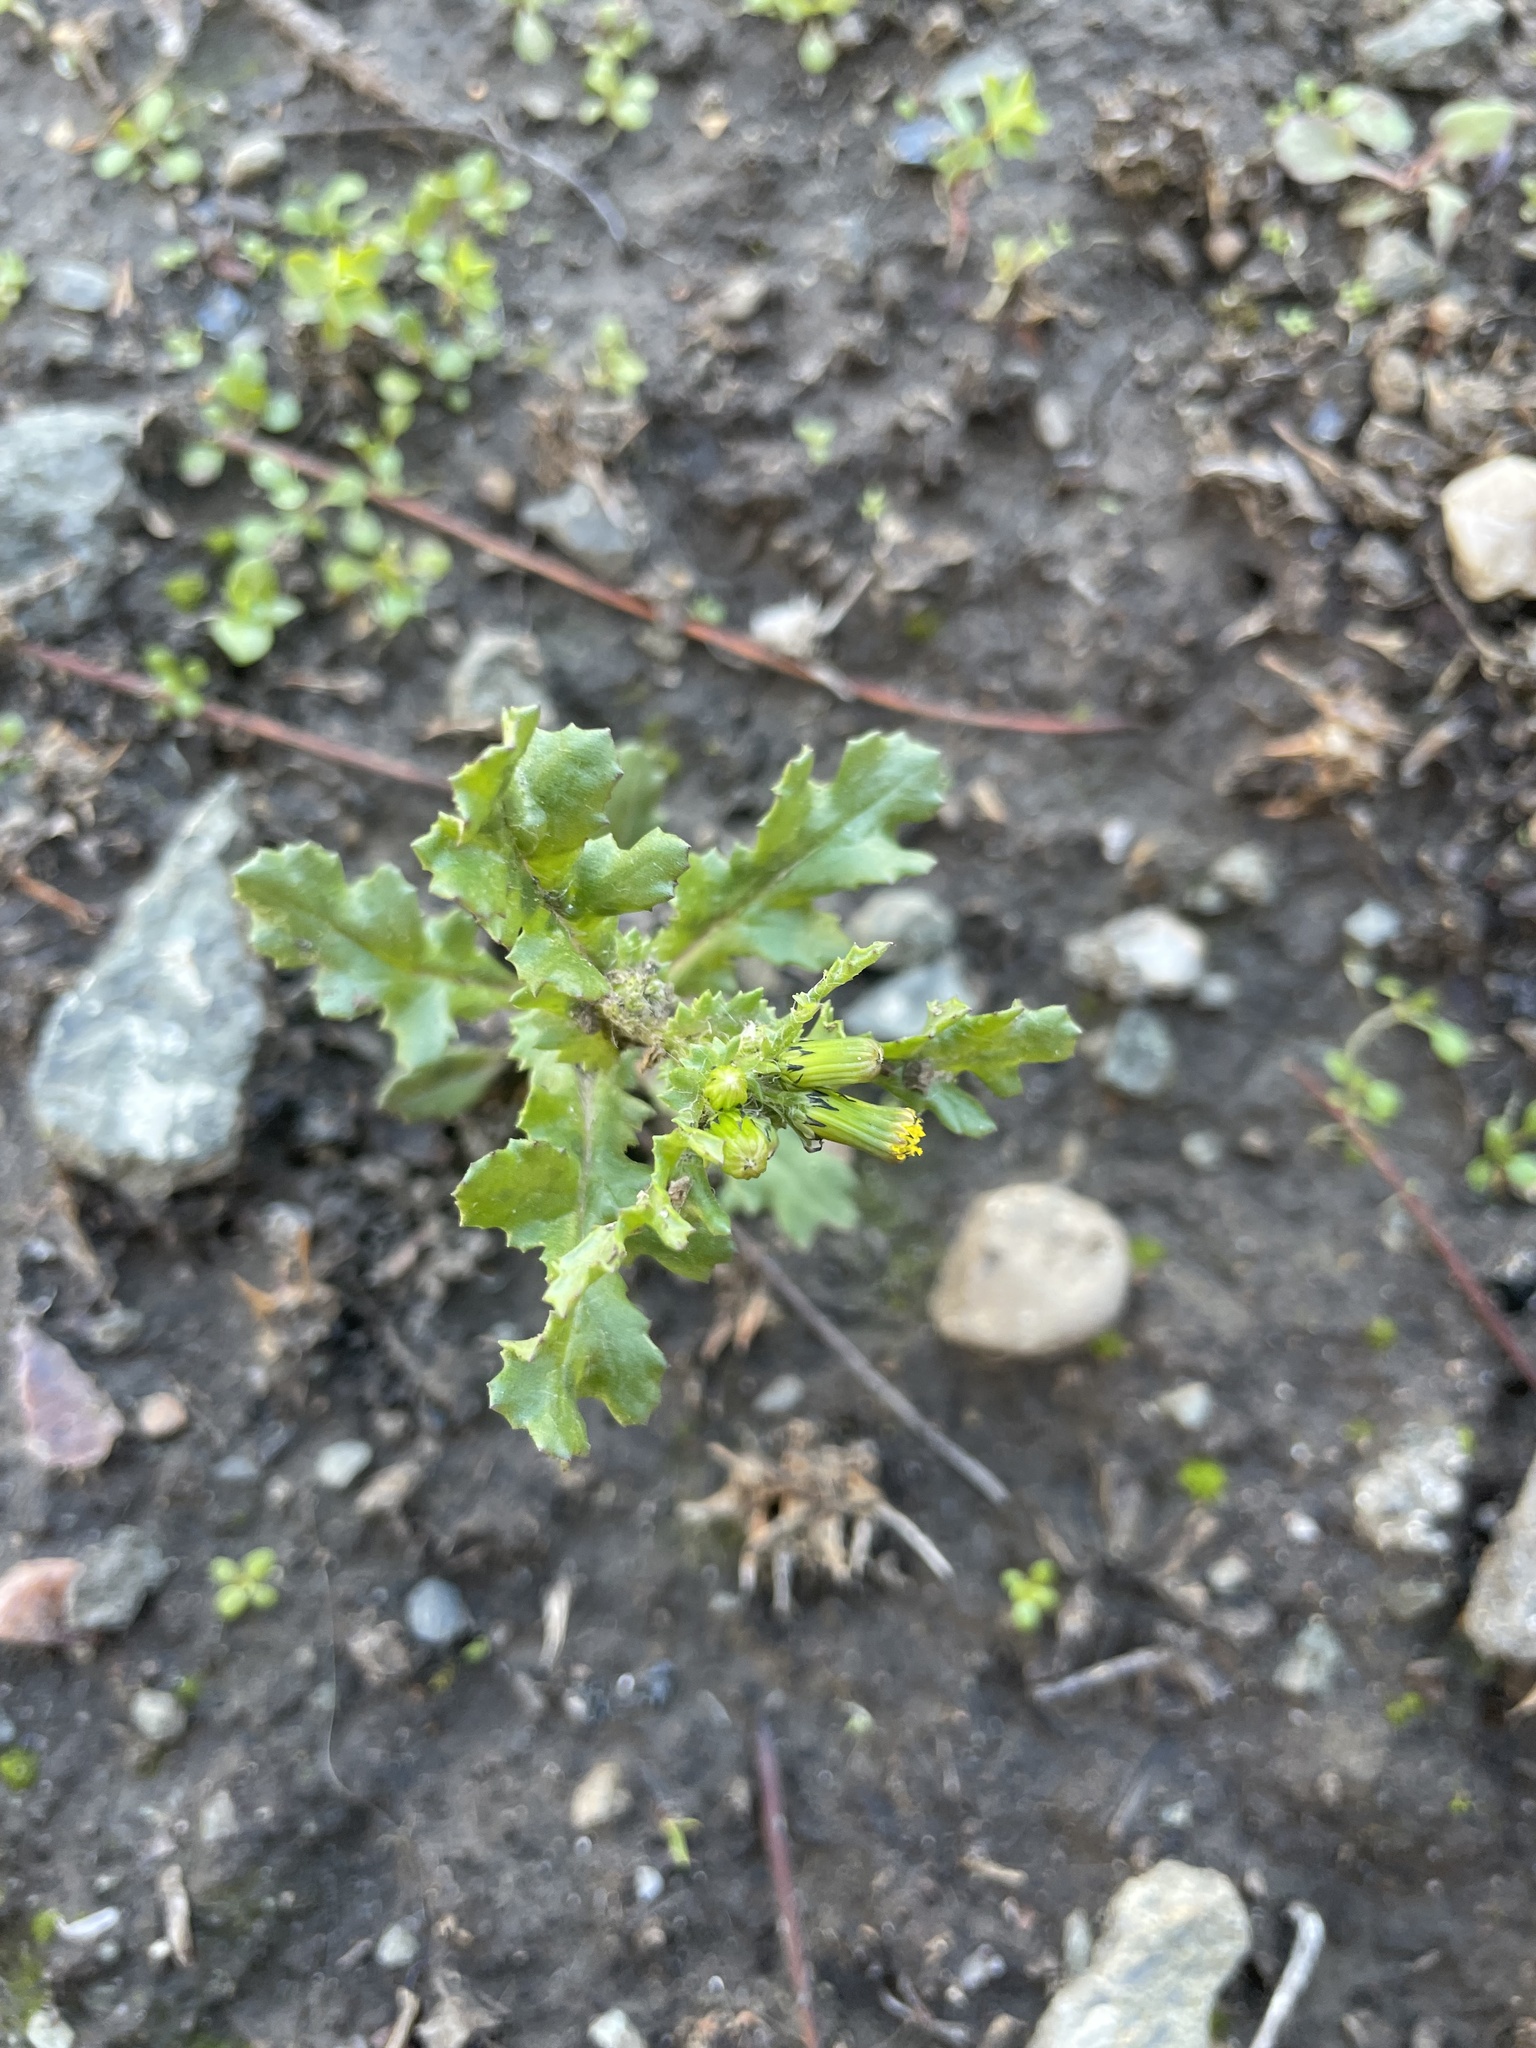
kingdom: Plantae
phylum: Tracheophyta
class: Magnoliopsida
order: Asterales
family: Asteraceae
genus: Senecio
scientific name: Senecio vulgaris
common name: Old-man-in-the-spring
